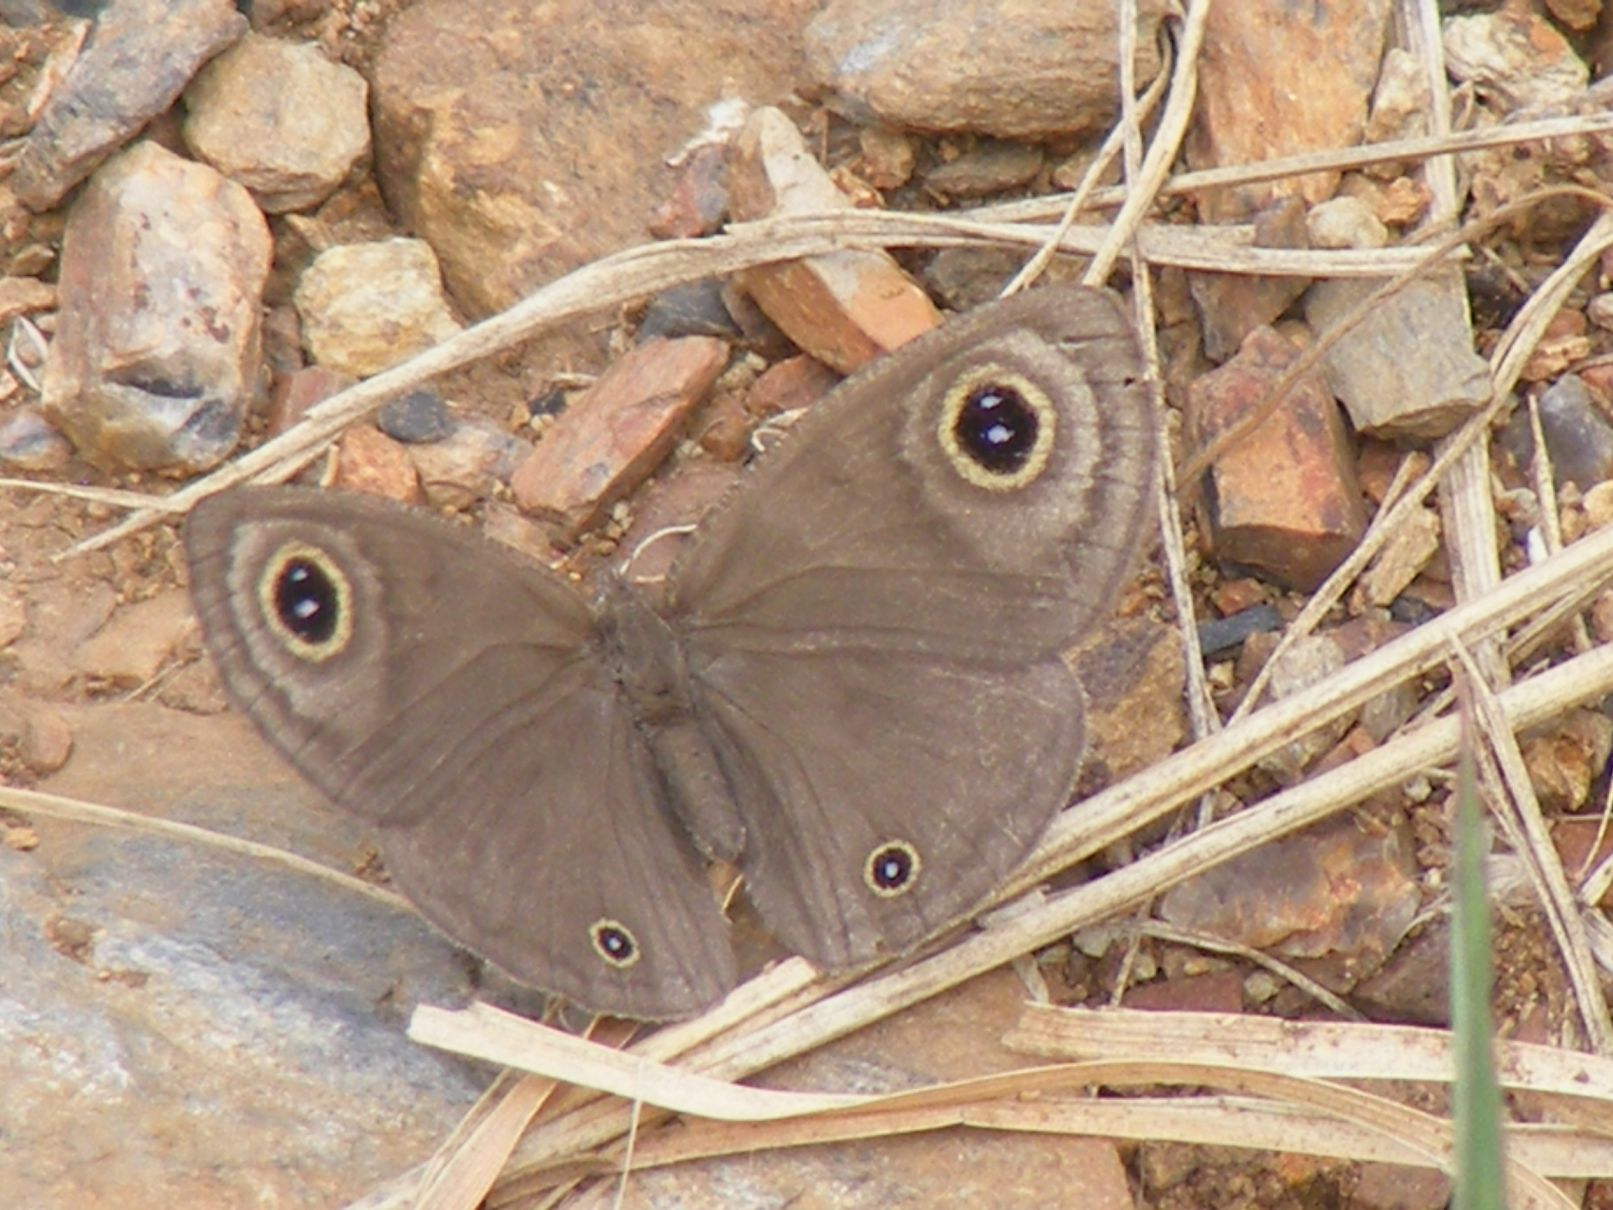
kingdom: Animalia
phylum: Arthropoda
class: Insecta
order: Lepidoptera
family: Nymphalidae
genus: Ypthima
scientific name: Ypthima asterope
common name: African ringlet
